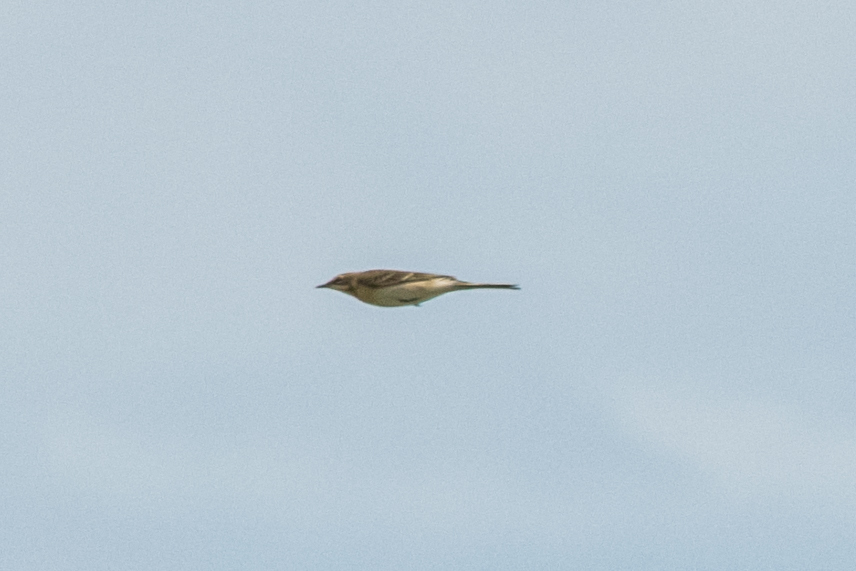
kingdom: Animalia
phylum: Chordata
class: Aves
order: Passeriformes
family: Motacillidae
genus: Motacilla
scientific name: Motacilla tschutschensis
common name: Eastern yellow wagtail
